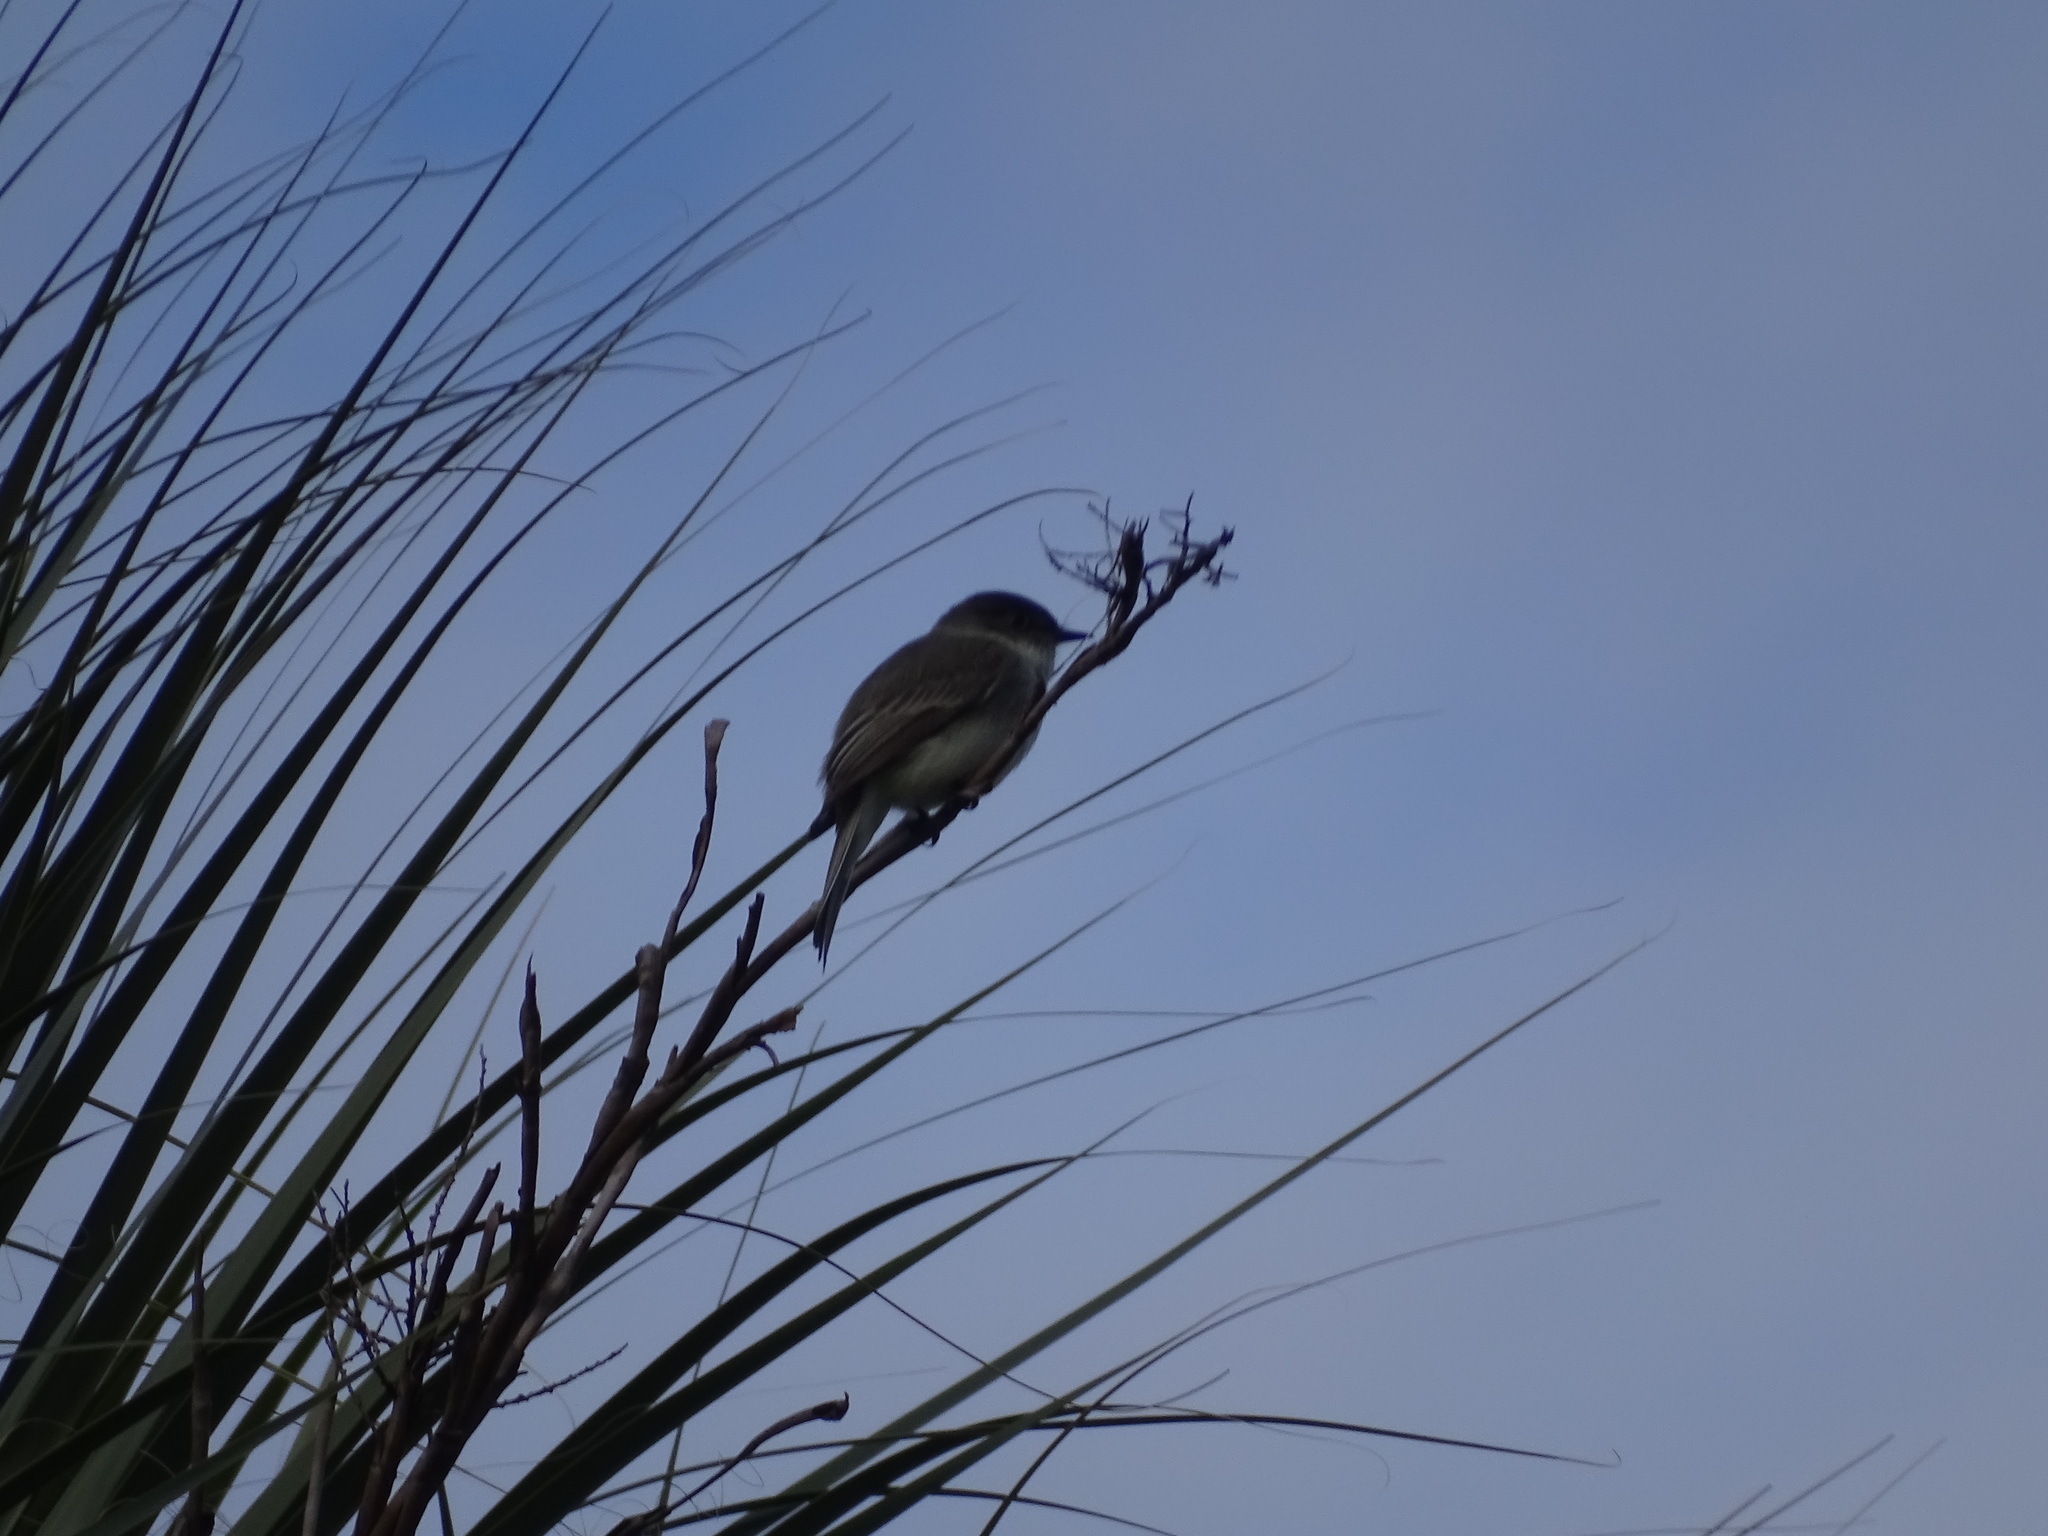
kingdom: Animalia
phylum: Chordata
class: Aves
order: Passeriformes
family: Tyrannidae
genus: Sayornis
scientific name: Sayornis phoebe
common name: Eastern phoebe
